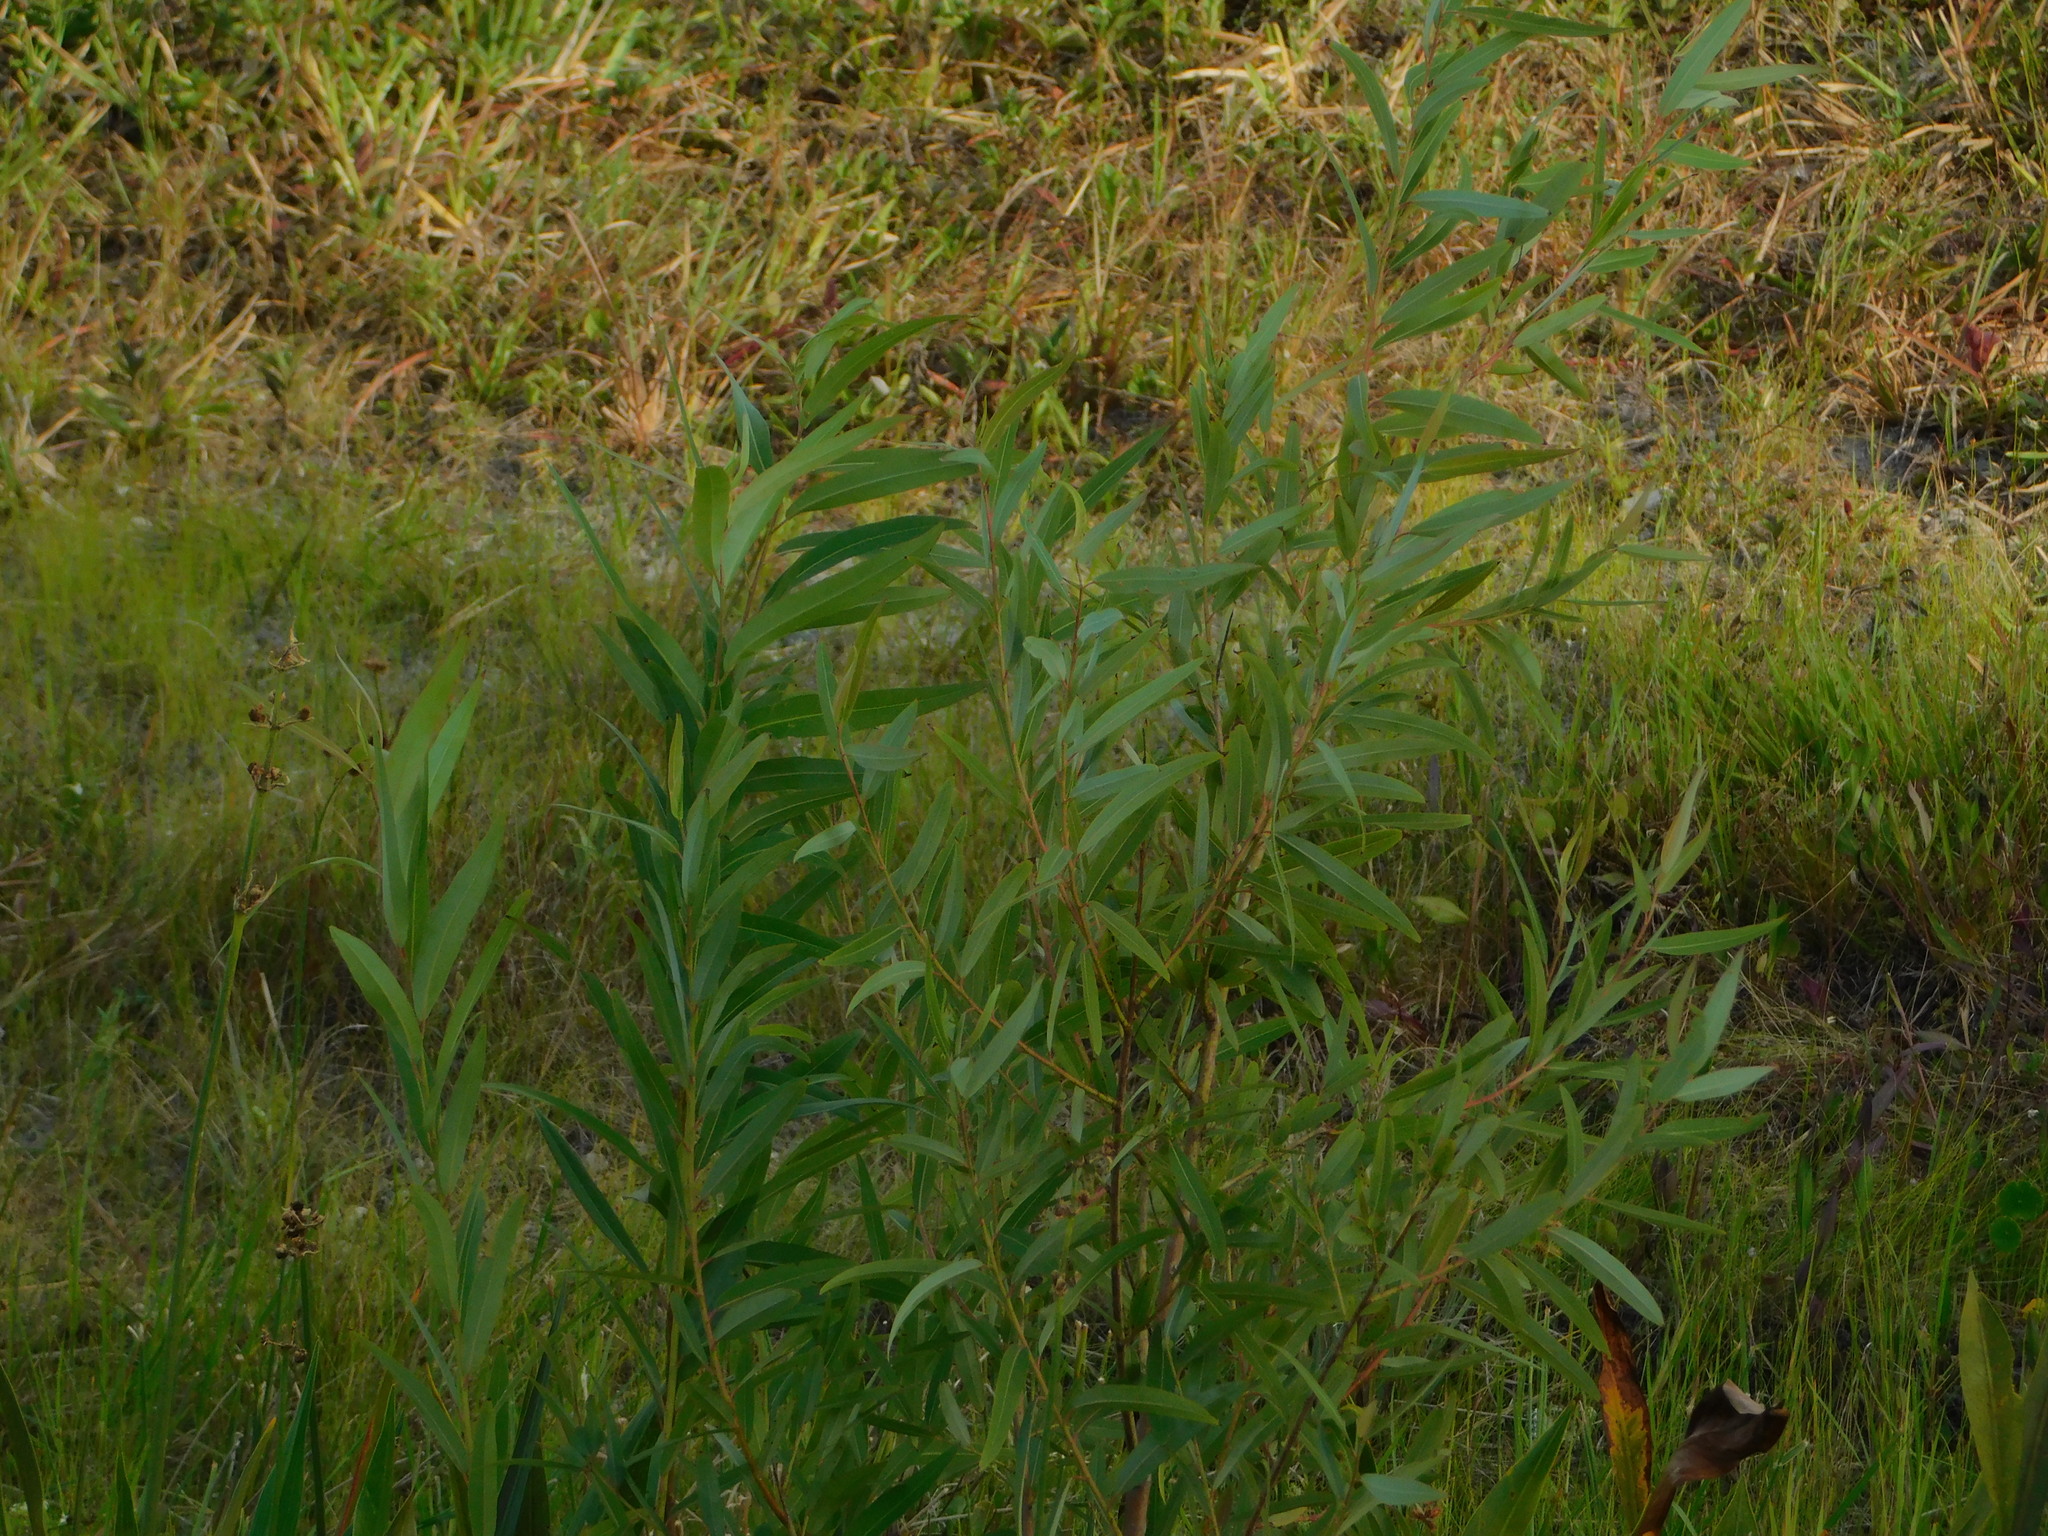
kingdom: Plantae
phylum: Tracheophyta
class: Magnoliopsida
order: Malpighiales
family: Salicaceae
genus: Salix
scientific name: Salix caroliniana
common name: Carolina willow
